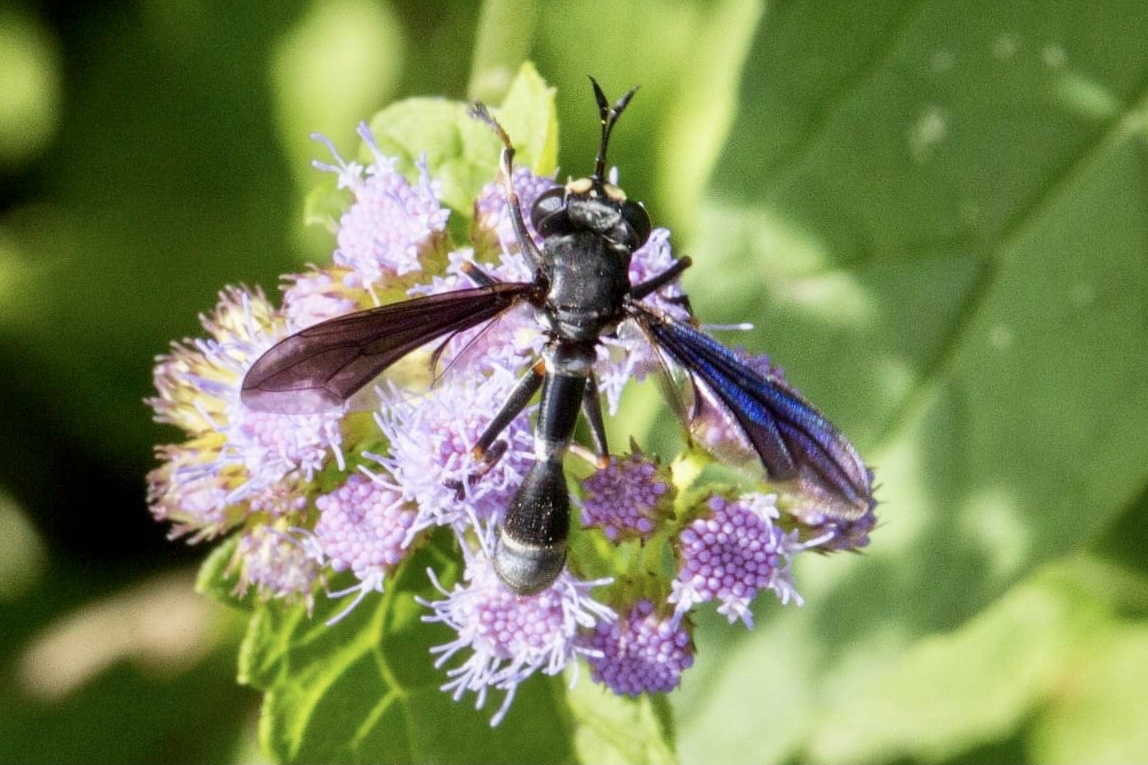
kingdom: Animalia
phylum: Arthropoda
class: Insecta
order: Diptera
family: Conopidae
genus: Physocephala
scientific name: Physocephala tibialis
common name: Common eastern physocephala
